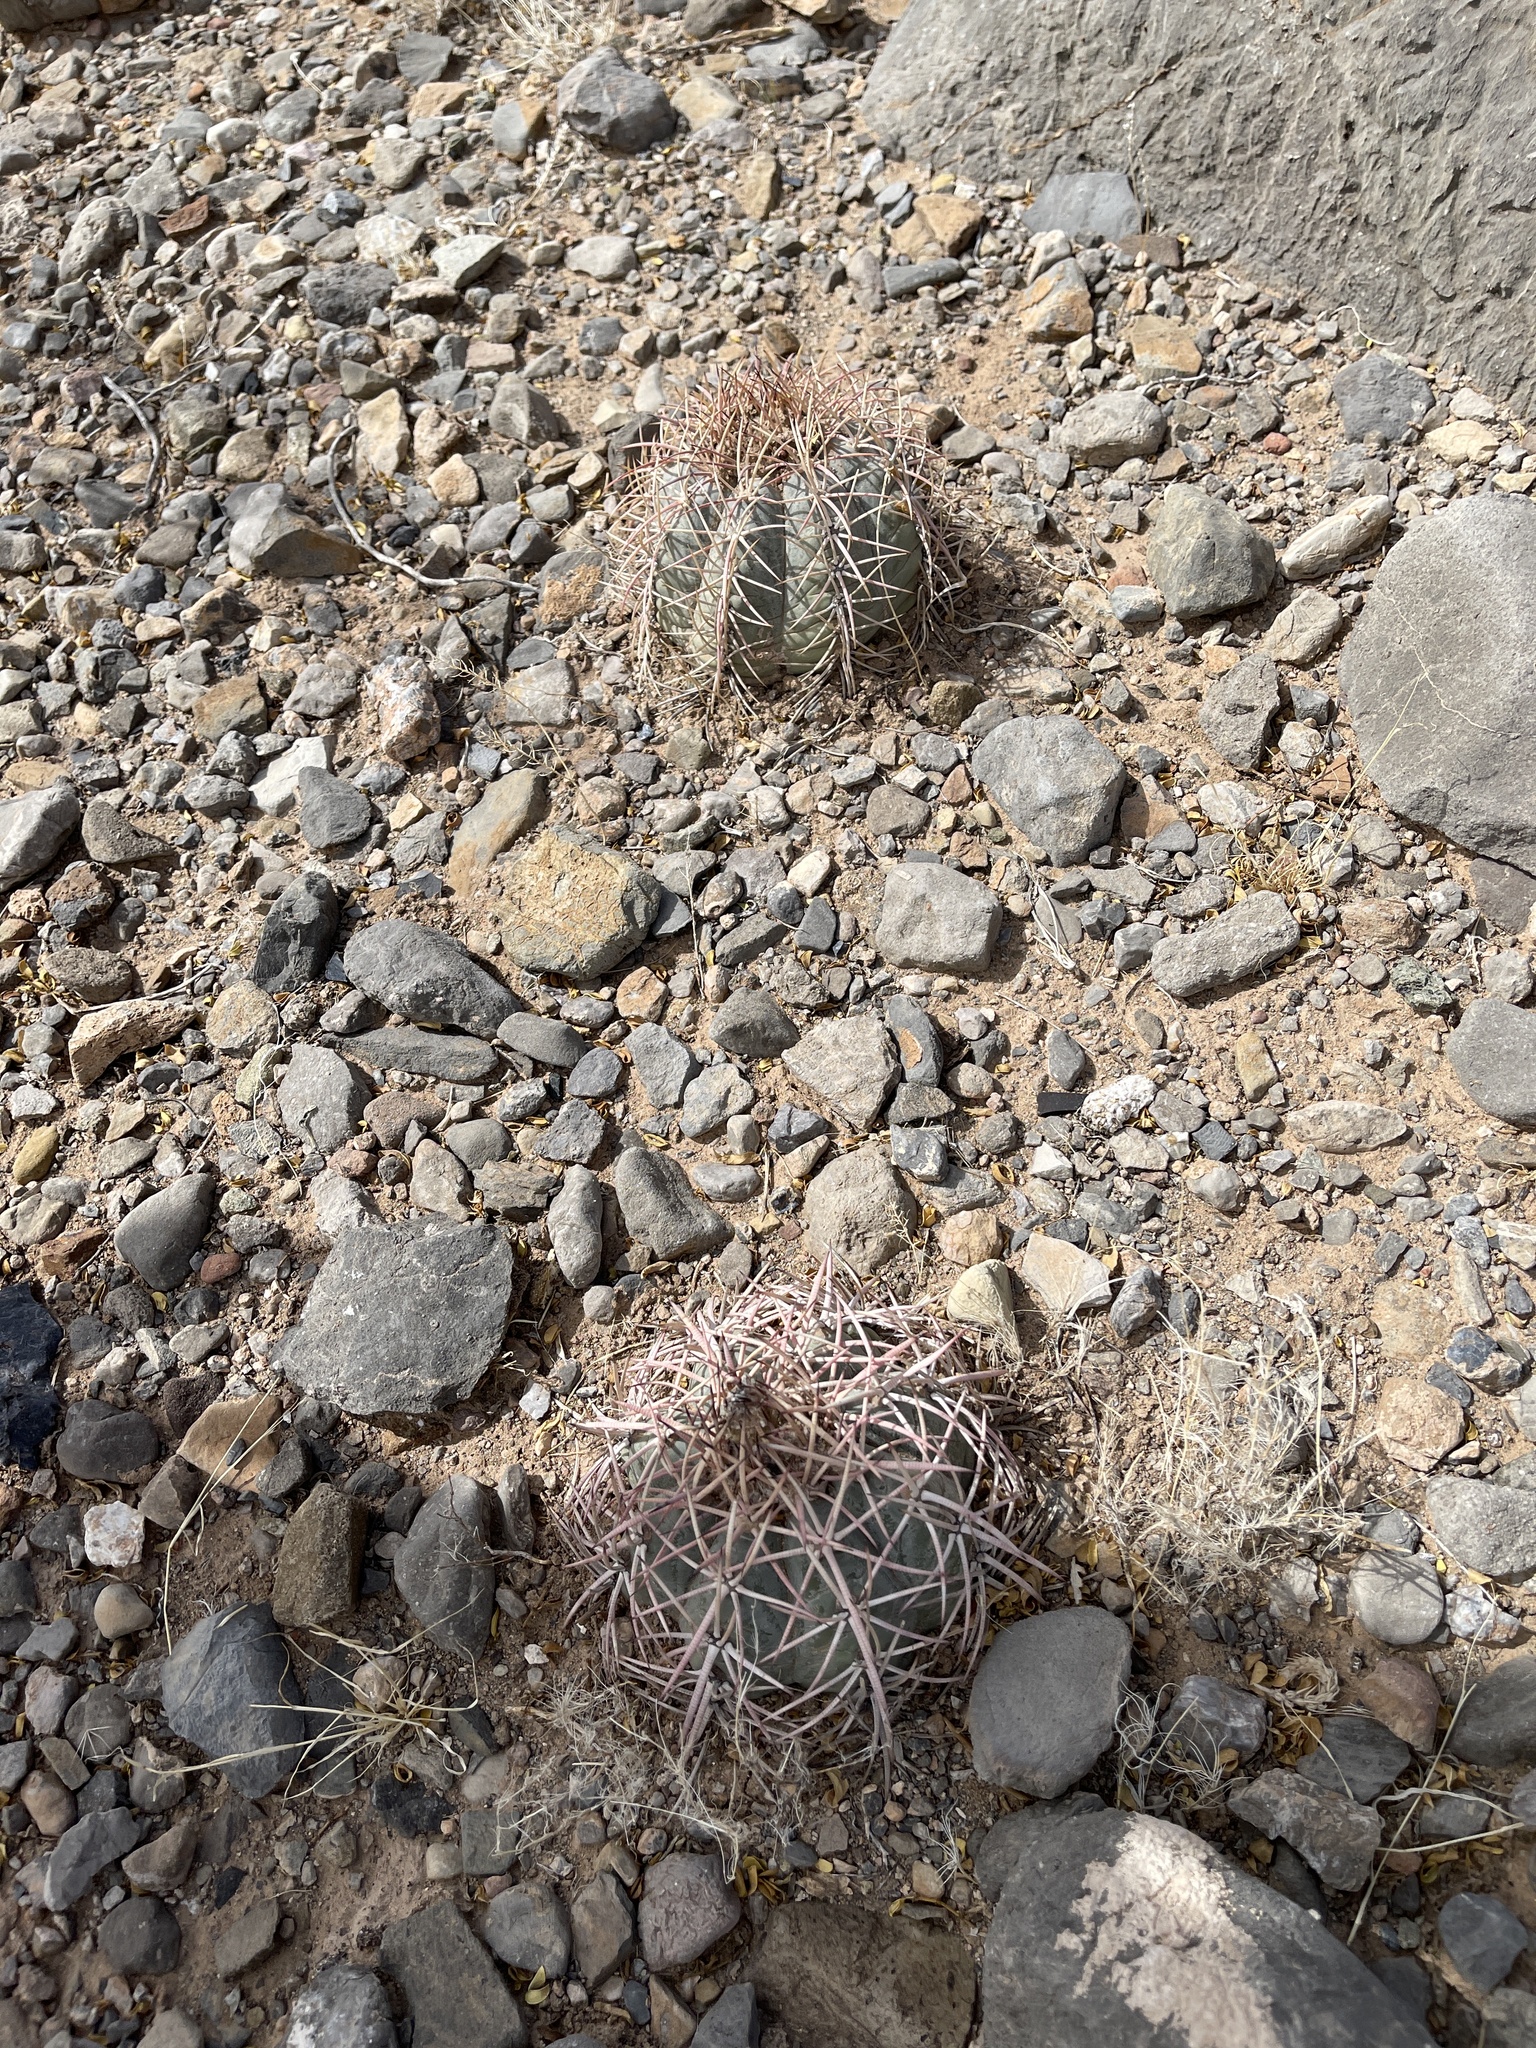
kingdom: Plantae
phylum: Tracheophyta
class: Magnoliopsida
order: Caryophyllales
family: Cactaceae
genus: Echinocactus
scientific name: Echinocactus horizonthalonius
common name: Devilshead
